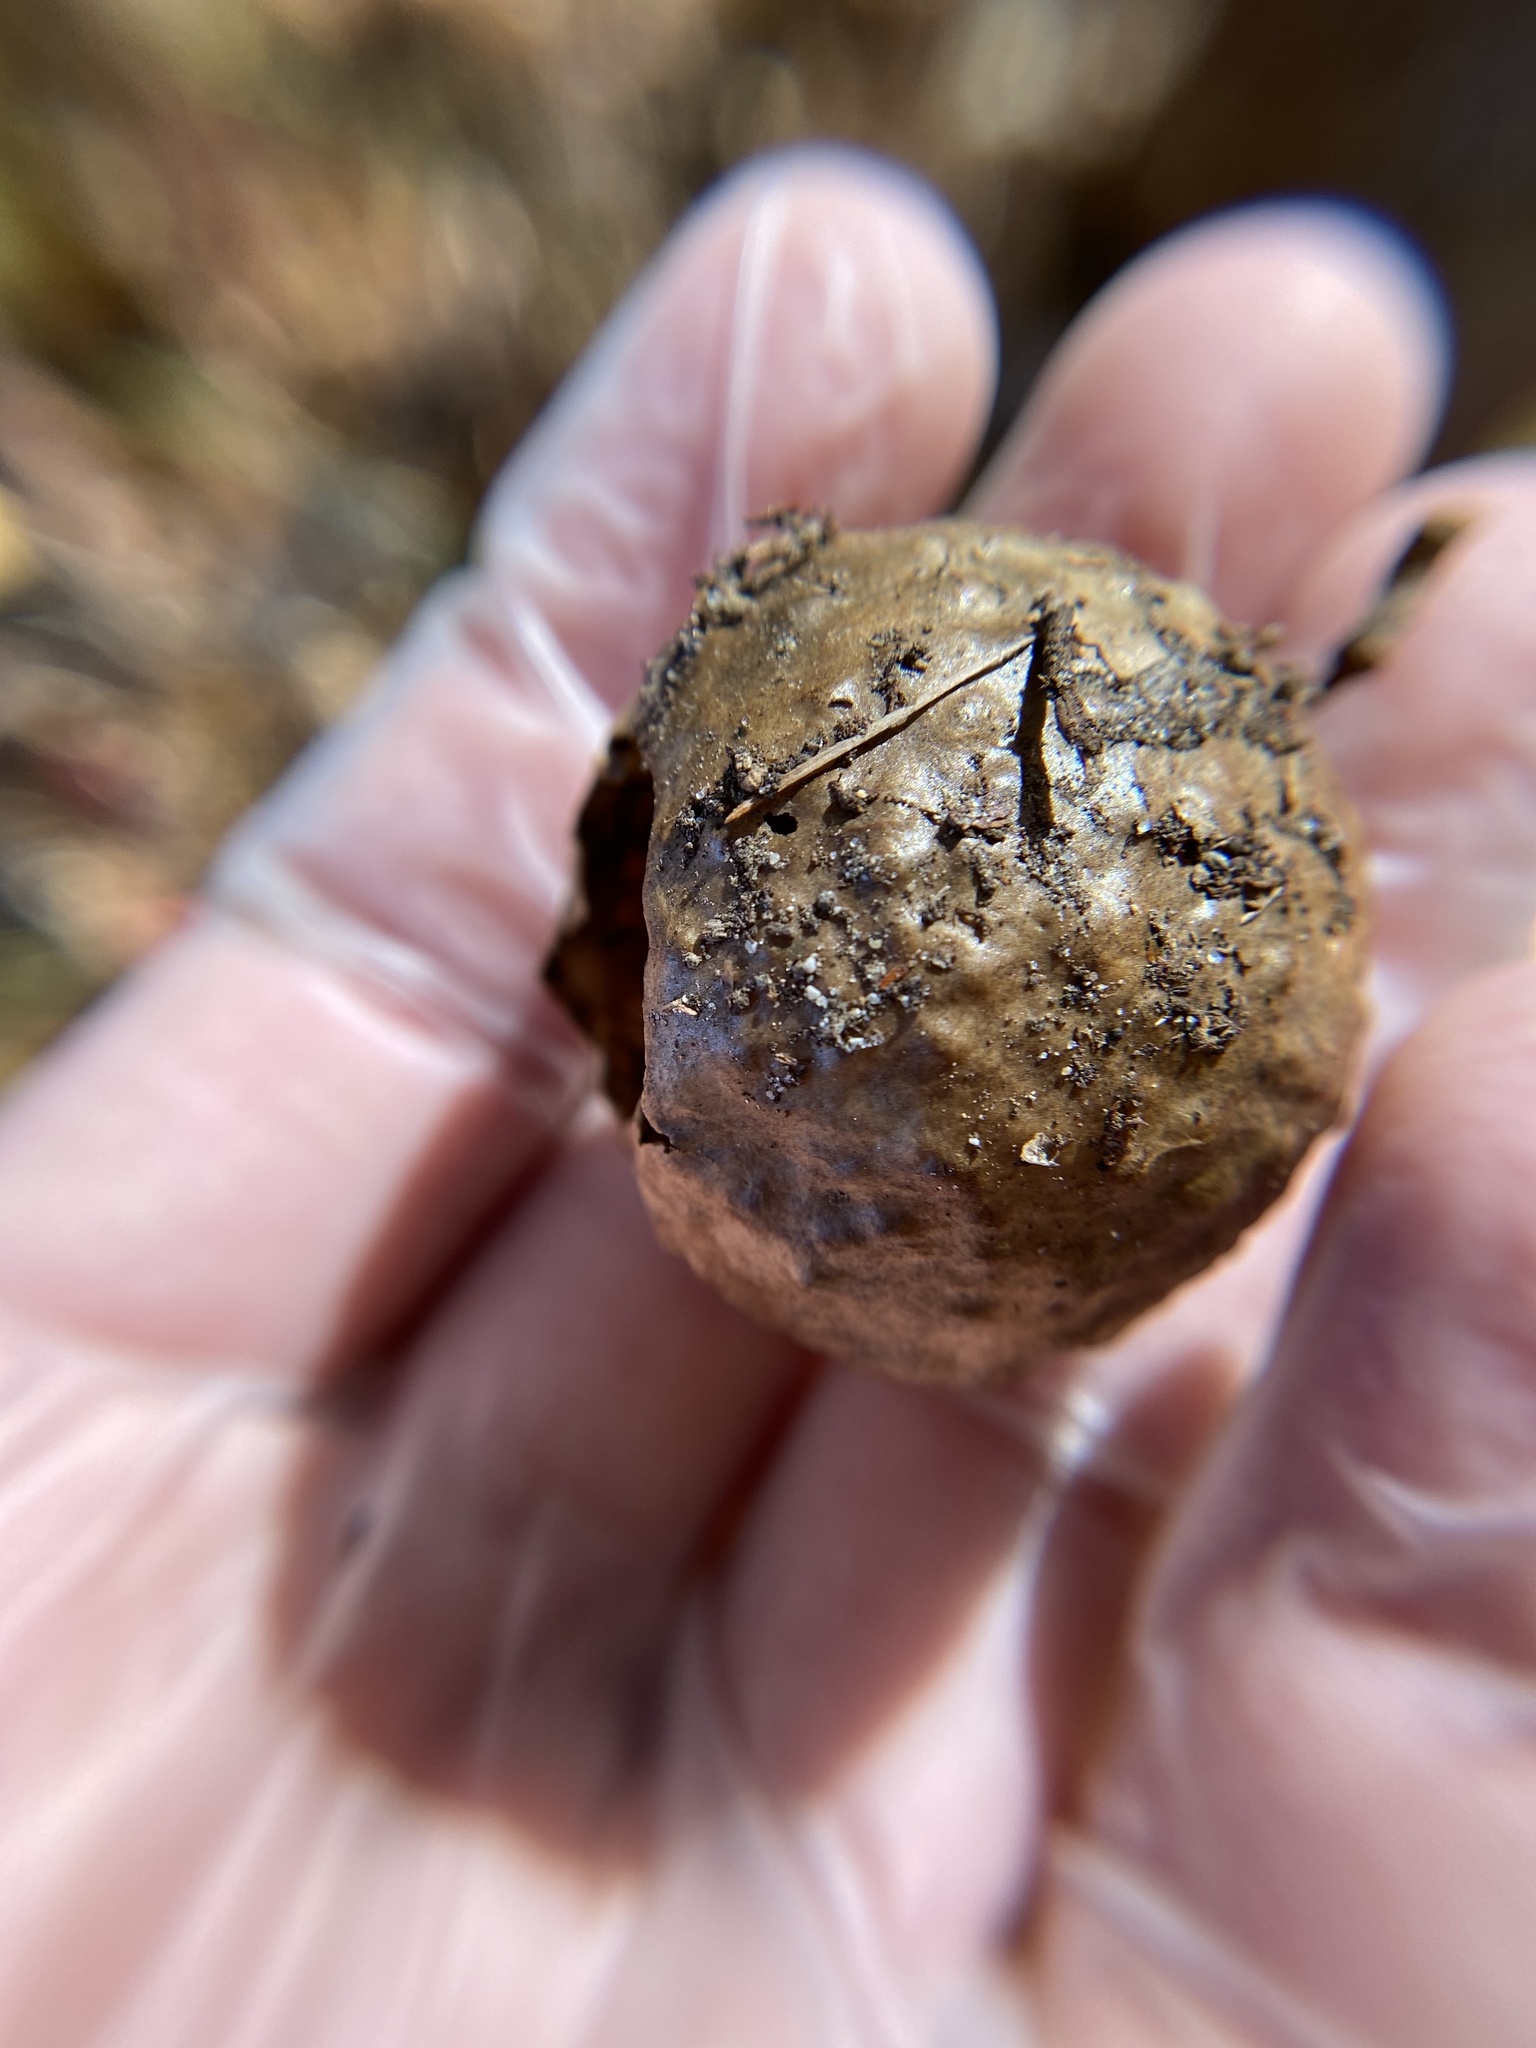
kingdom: Animalia
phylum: Arthropoda
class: Insecta
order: Hymenoptera
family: Cynipidae
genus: Amphibolips
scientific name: Amphibolips
